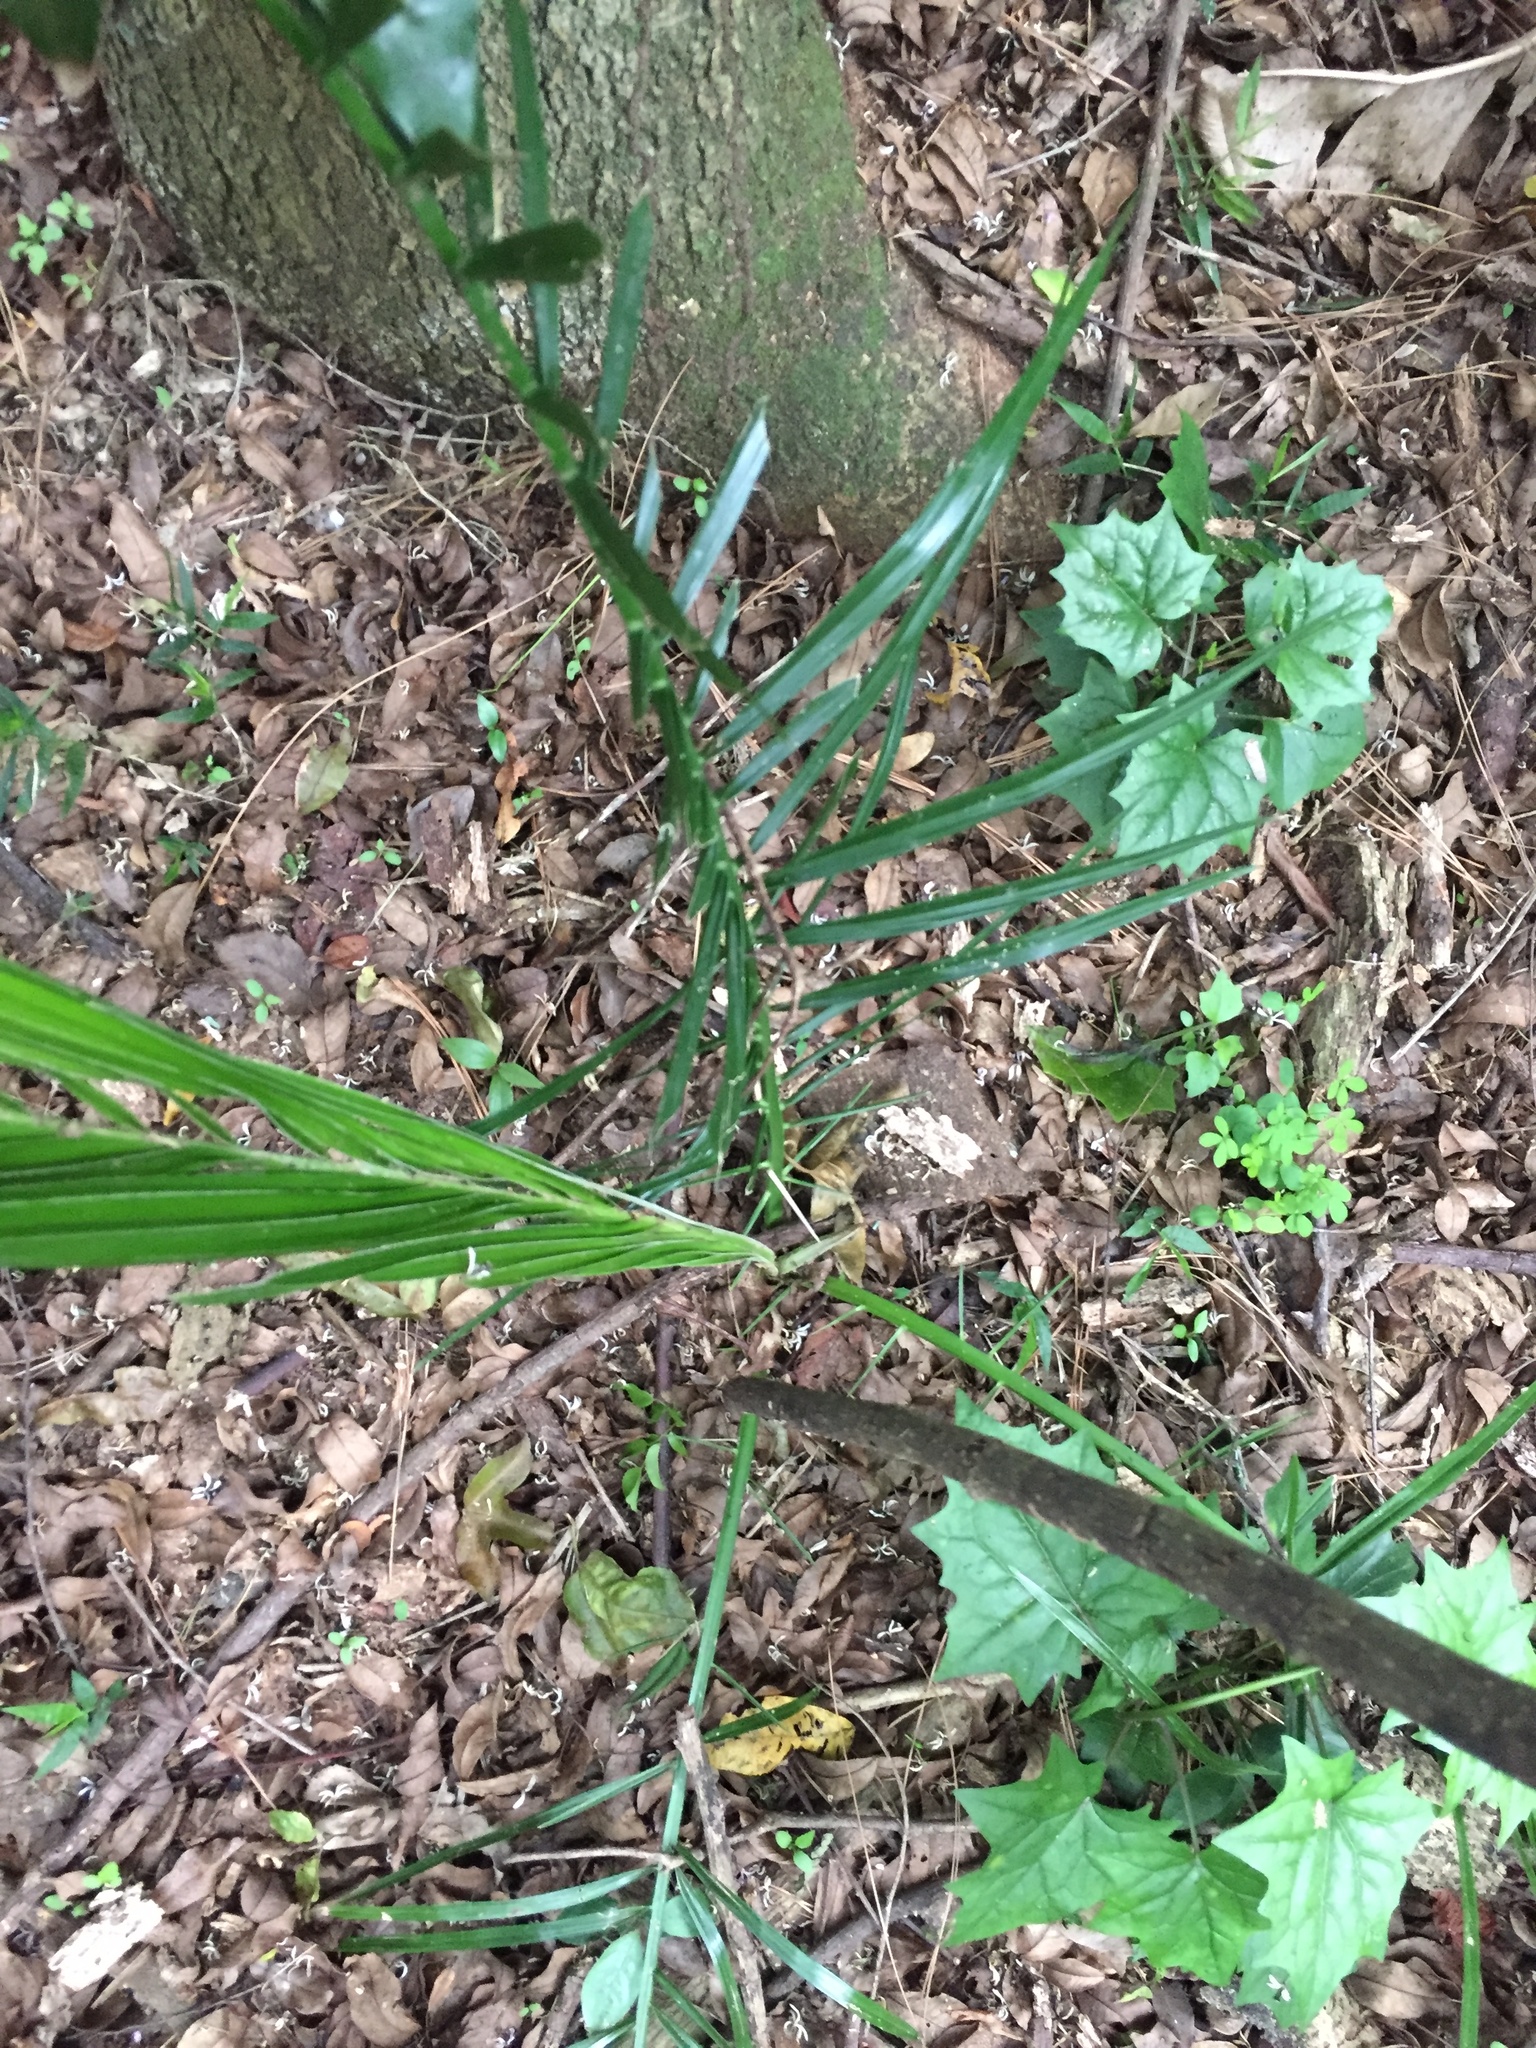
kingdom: Plantae
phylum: Tracheophyta
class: Liliopsida
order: Arecales
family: Arecaceae
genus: Phoenix
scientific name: Phoenix reclinata
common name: Senegal date palm
